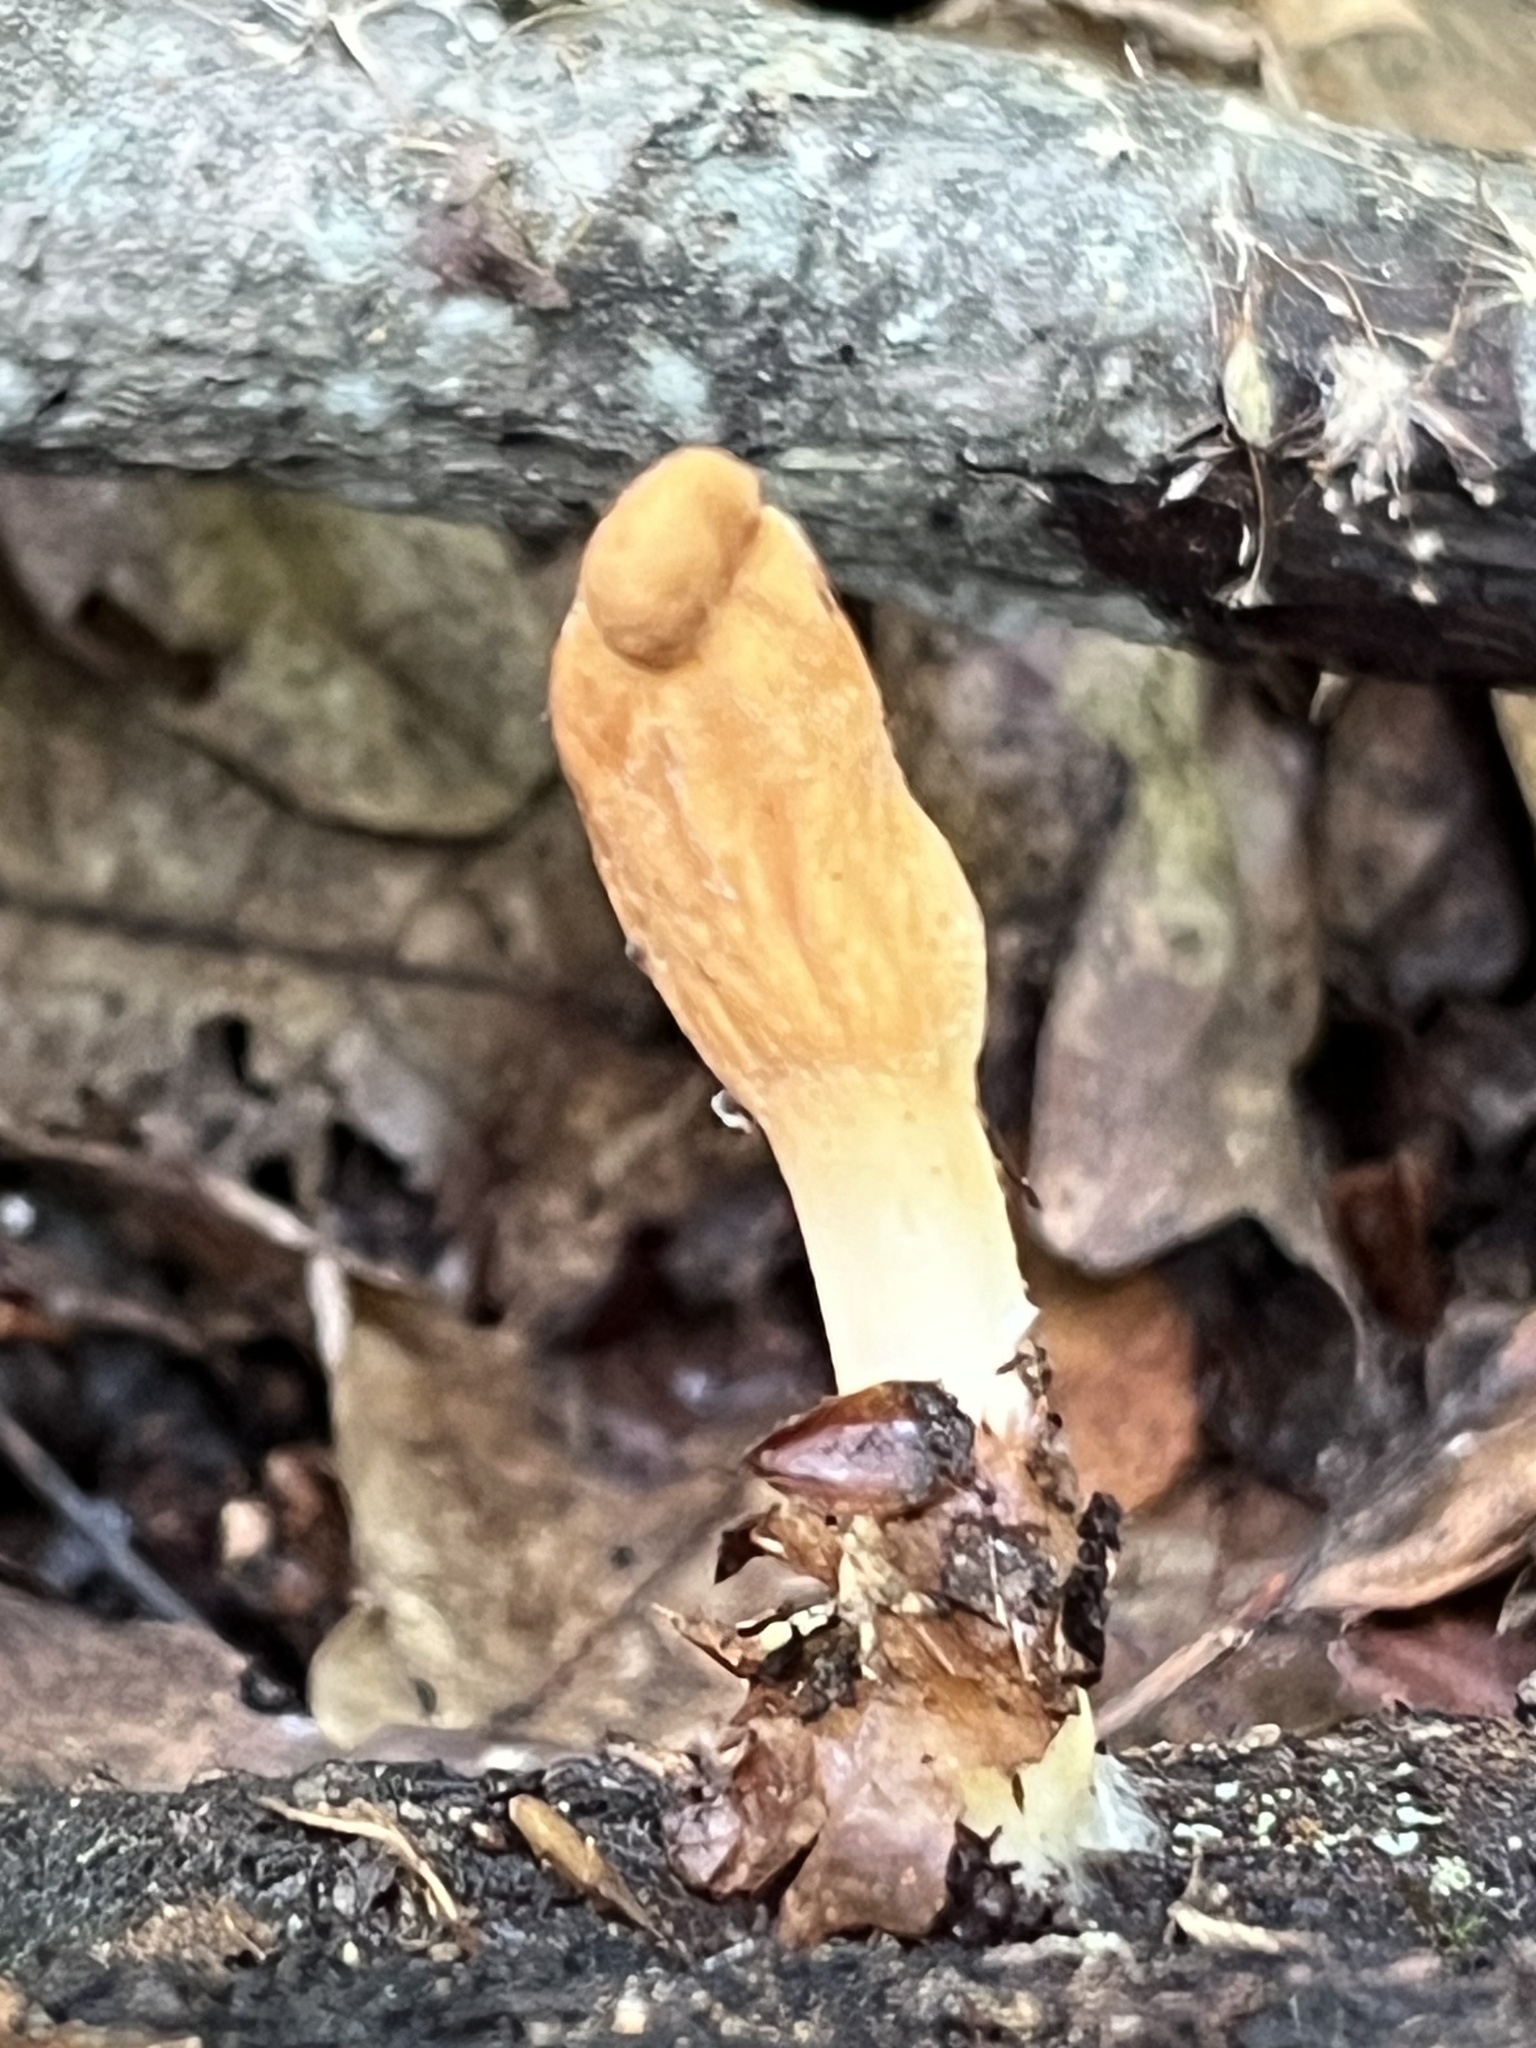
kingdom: Fungi
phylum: Ascomycota
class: Sordariomycetes
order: Hypocreales
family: Hypocreaceae
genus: Trichoderma
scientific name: Trichoderma alutaceum
